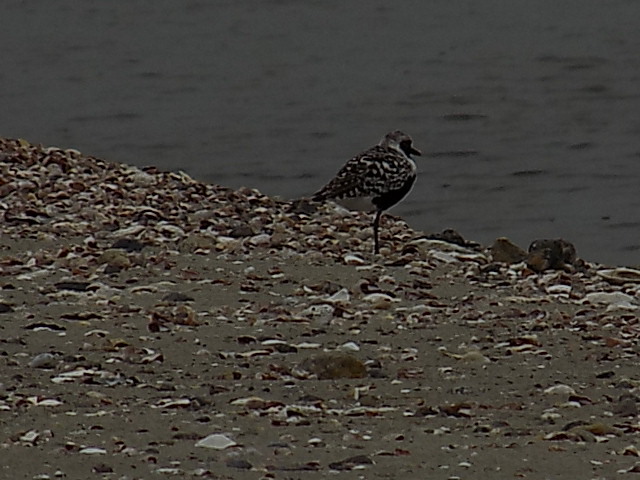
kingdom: Animalia
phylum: Chordata
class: Aves
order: Charadriiformes
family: Charadriidae
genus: Pluvialis
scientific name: Pluvialis squatarola
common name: Grey plover
